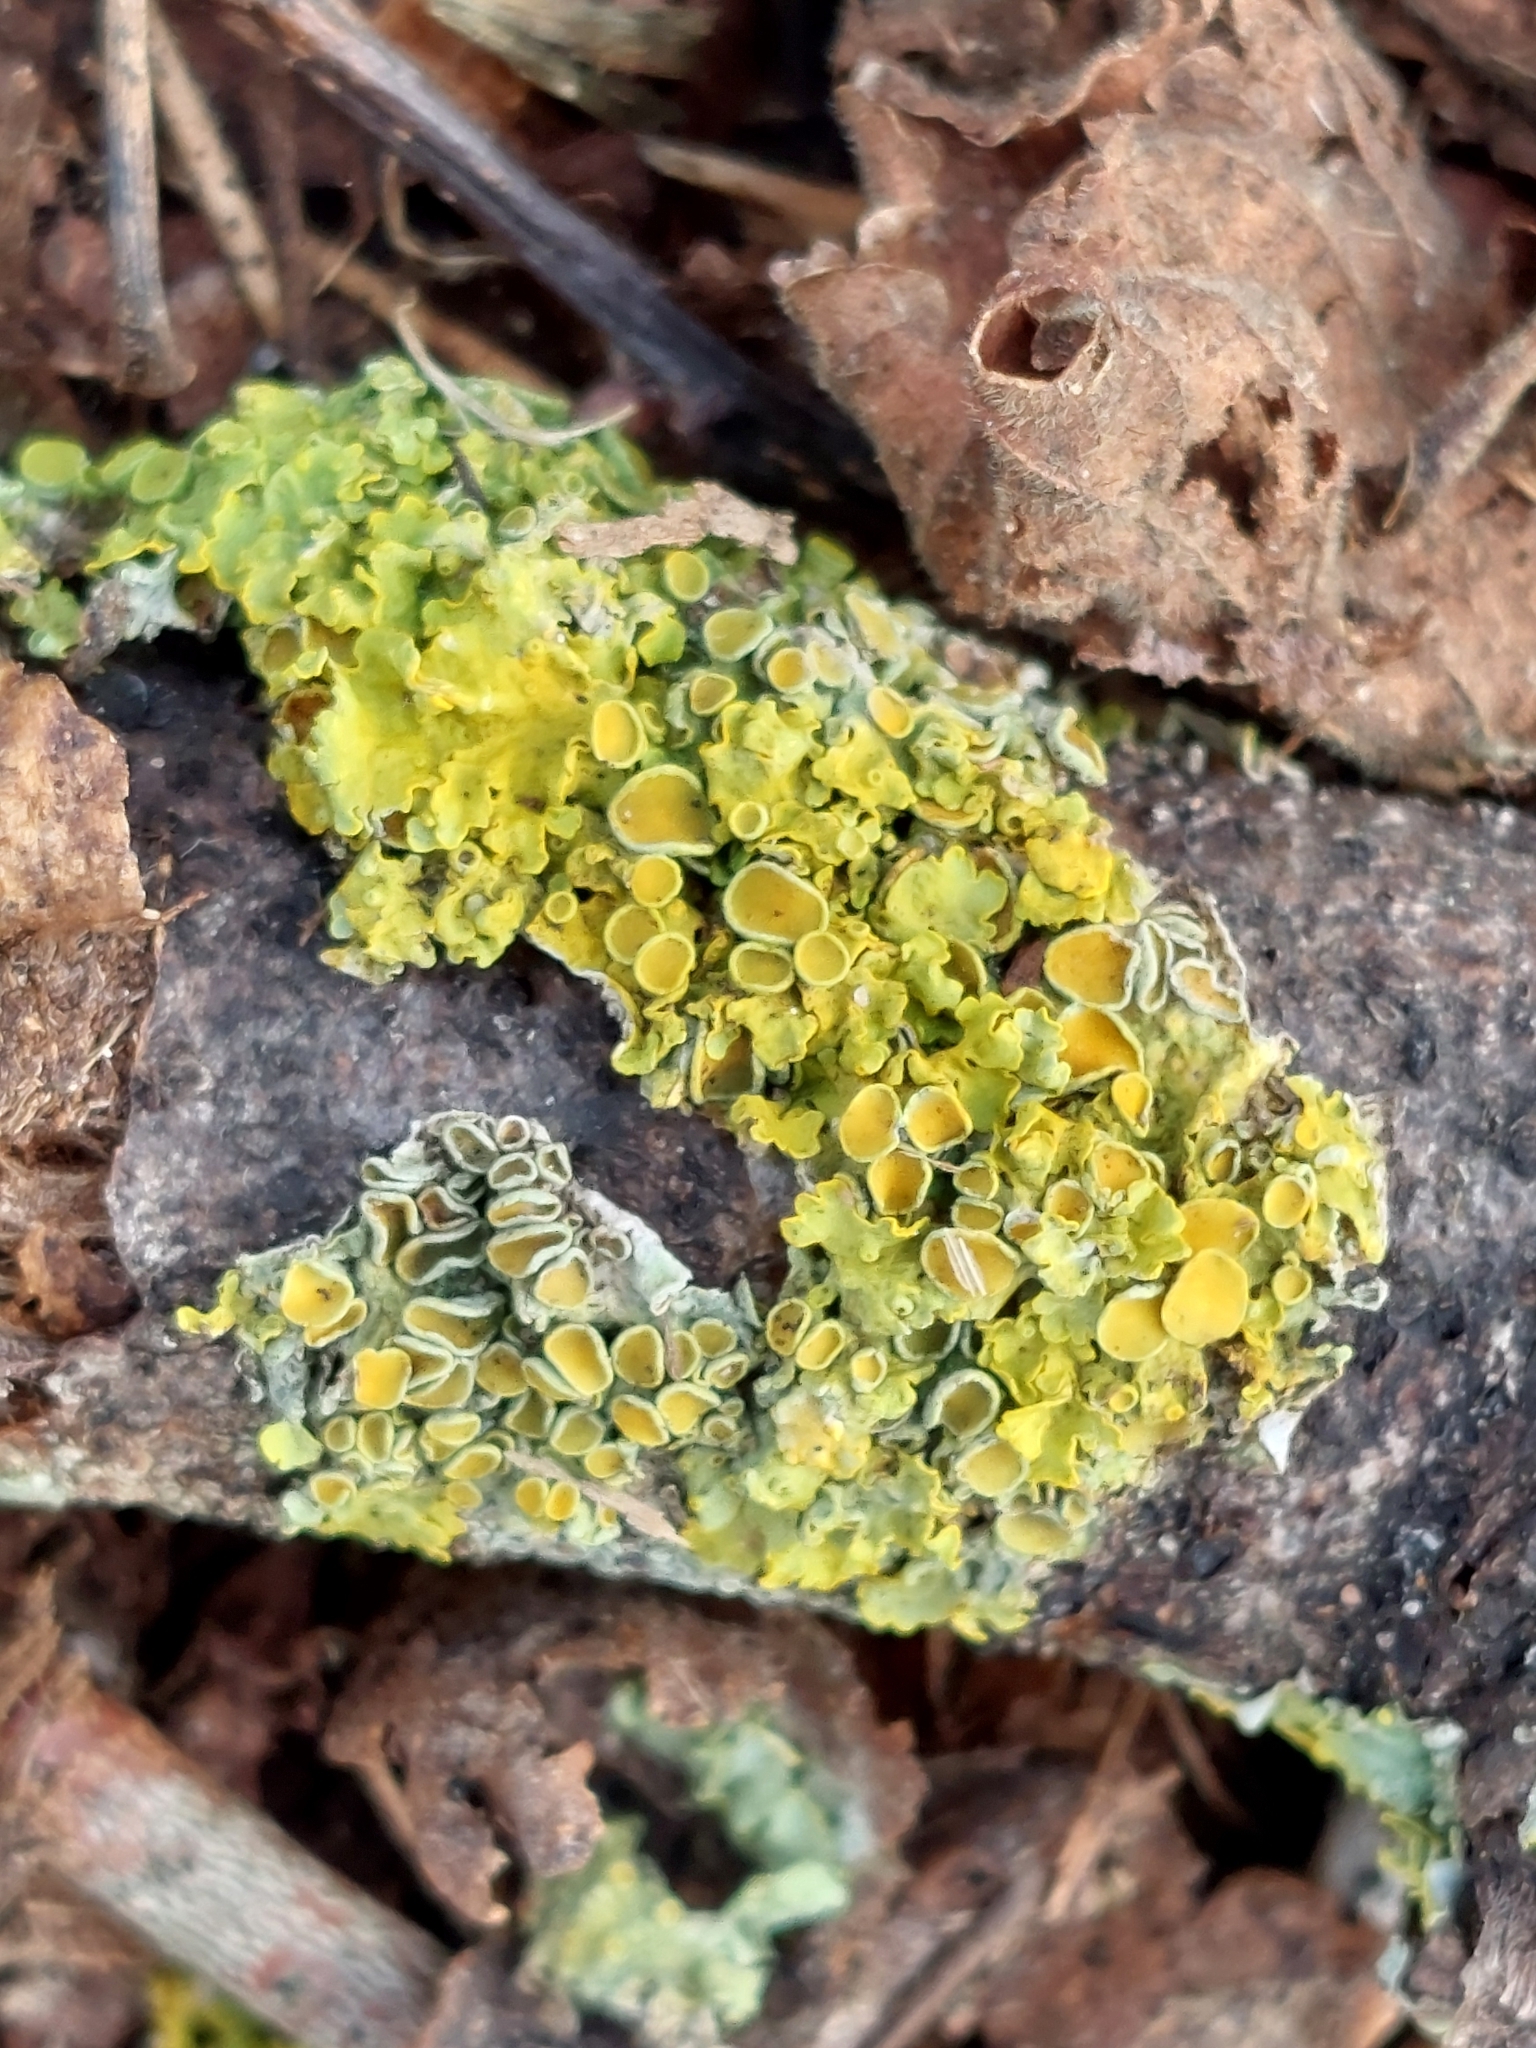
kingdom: Fungi
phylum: Ascomycota
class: Lecanoromycetes
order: Teloschistales
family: Teloschistaceae
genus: Xanthoria
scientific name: Xanthoria parietina
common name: Common orange lichen
